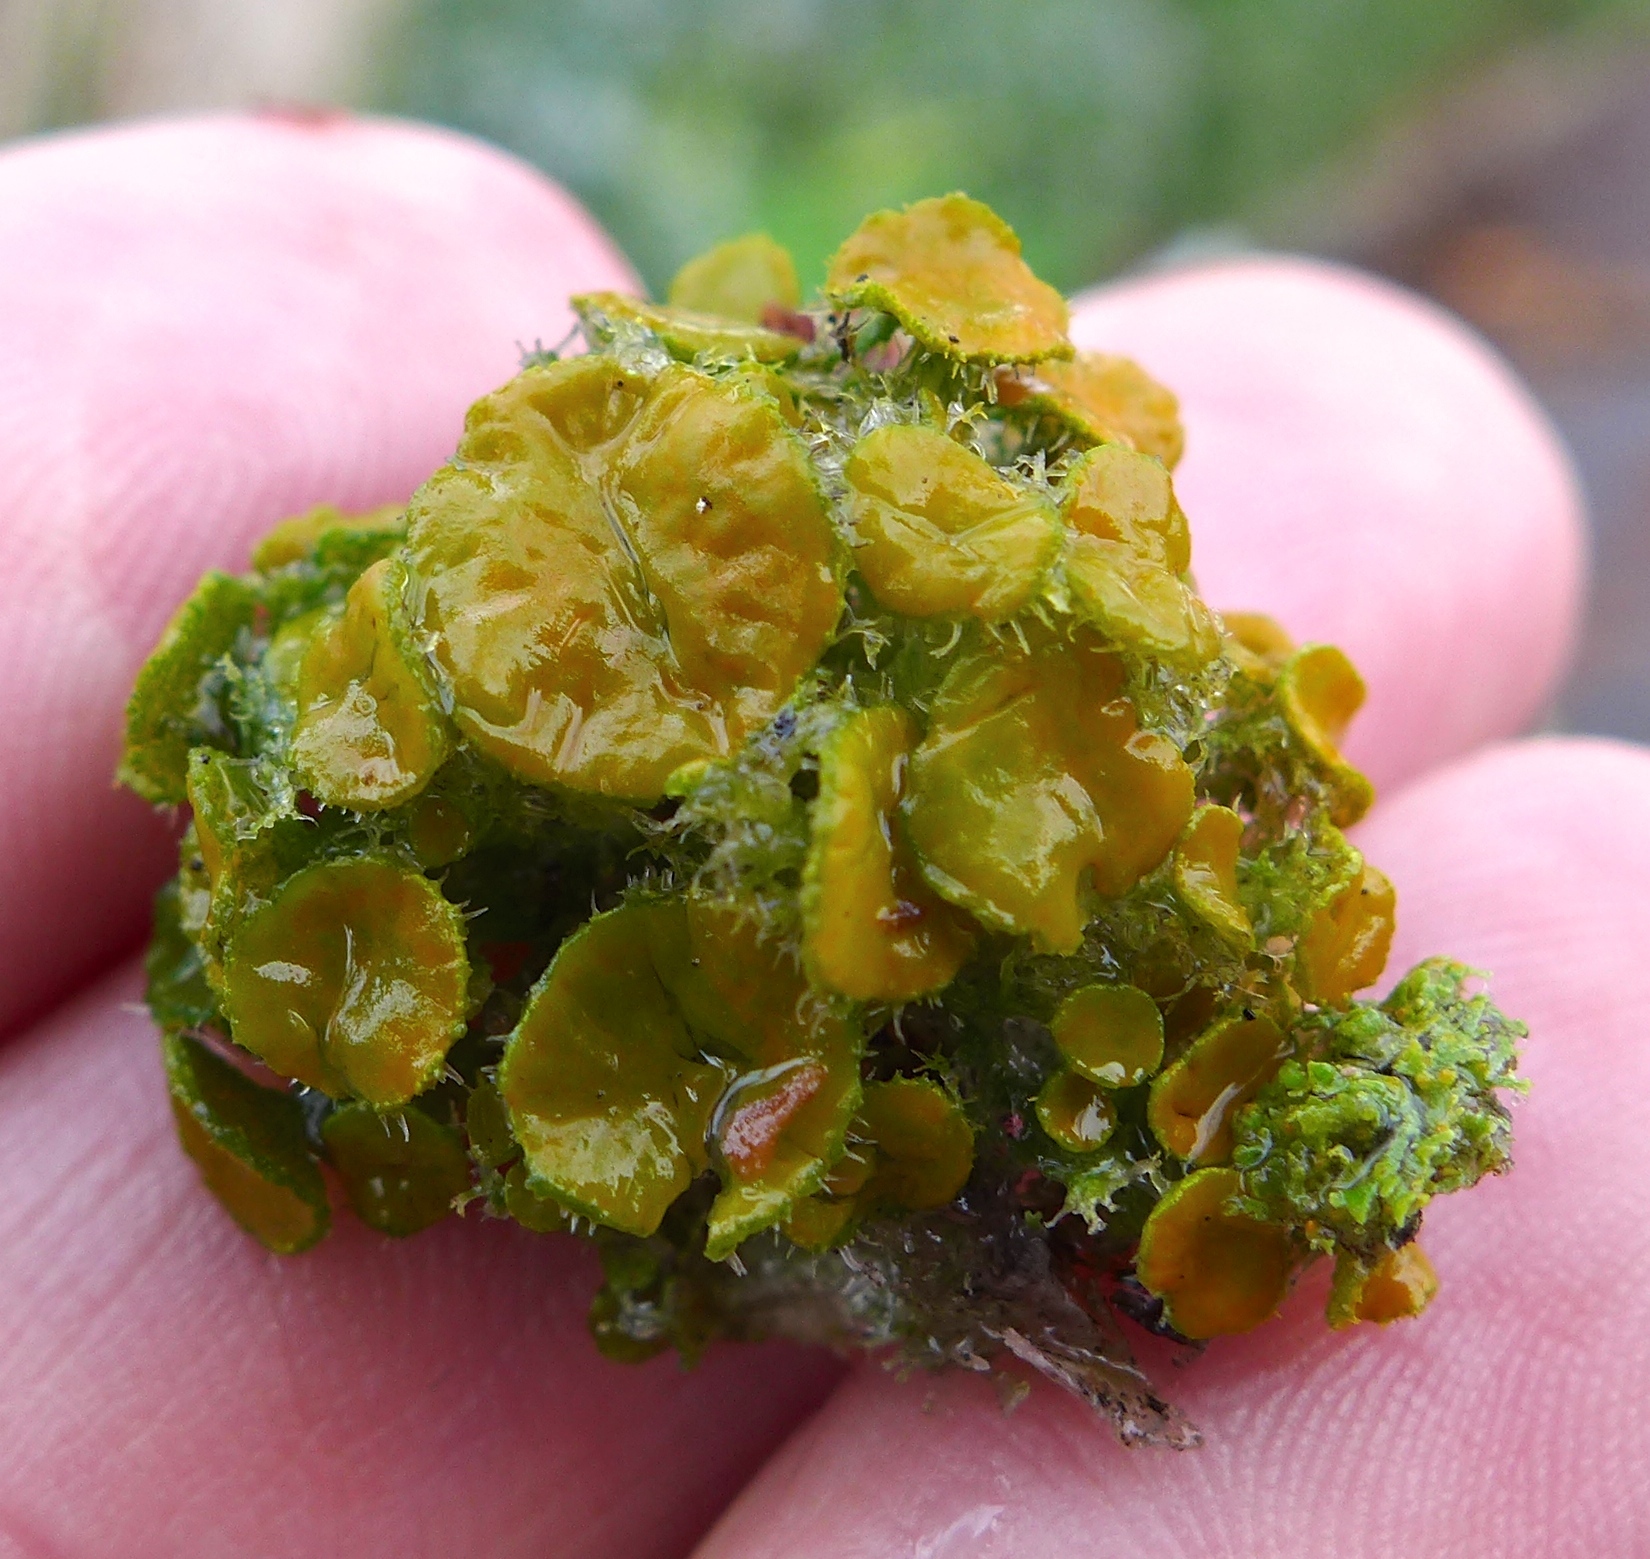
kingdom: Fungi
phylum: Ascomycota
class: Lecanoromycetes
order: Teloschistales
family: Teloschistaceae
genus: Niorma
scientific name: Niorma chrysophthalma
